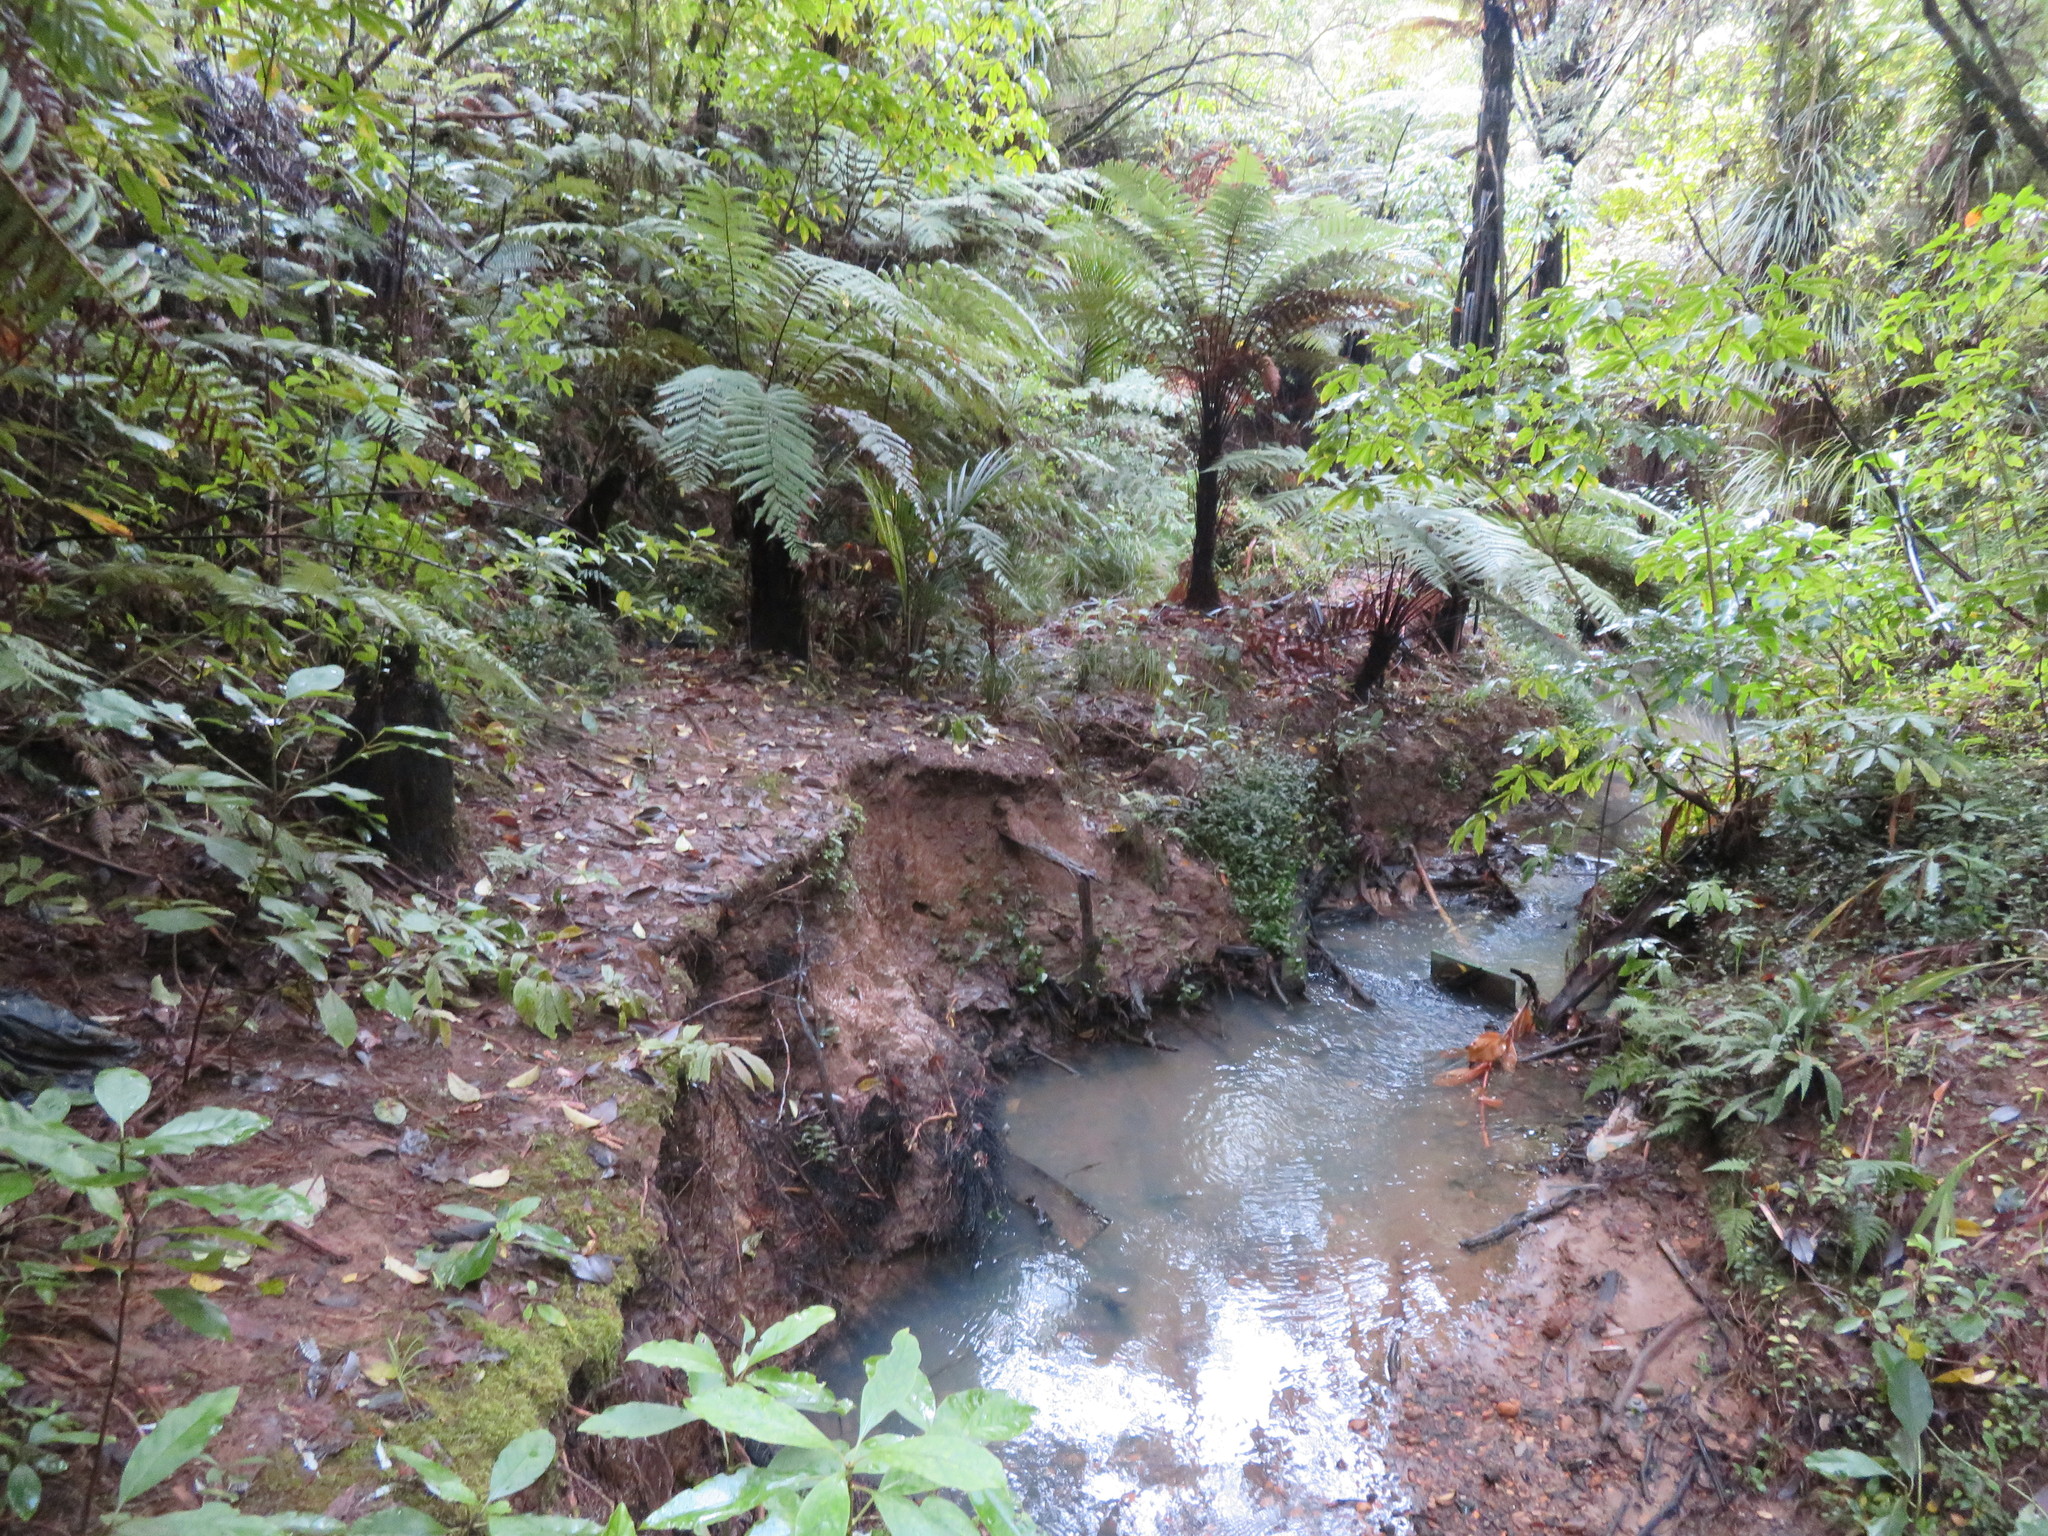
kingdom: Plantae
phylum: Tracheophyta
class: Magnoliopsida
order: Gentianales
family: Rubiaceae
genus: Coprosma
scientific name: Coprosma autumnalis
